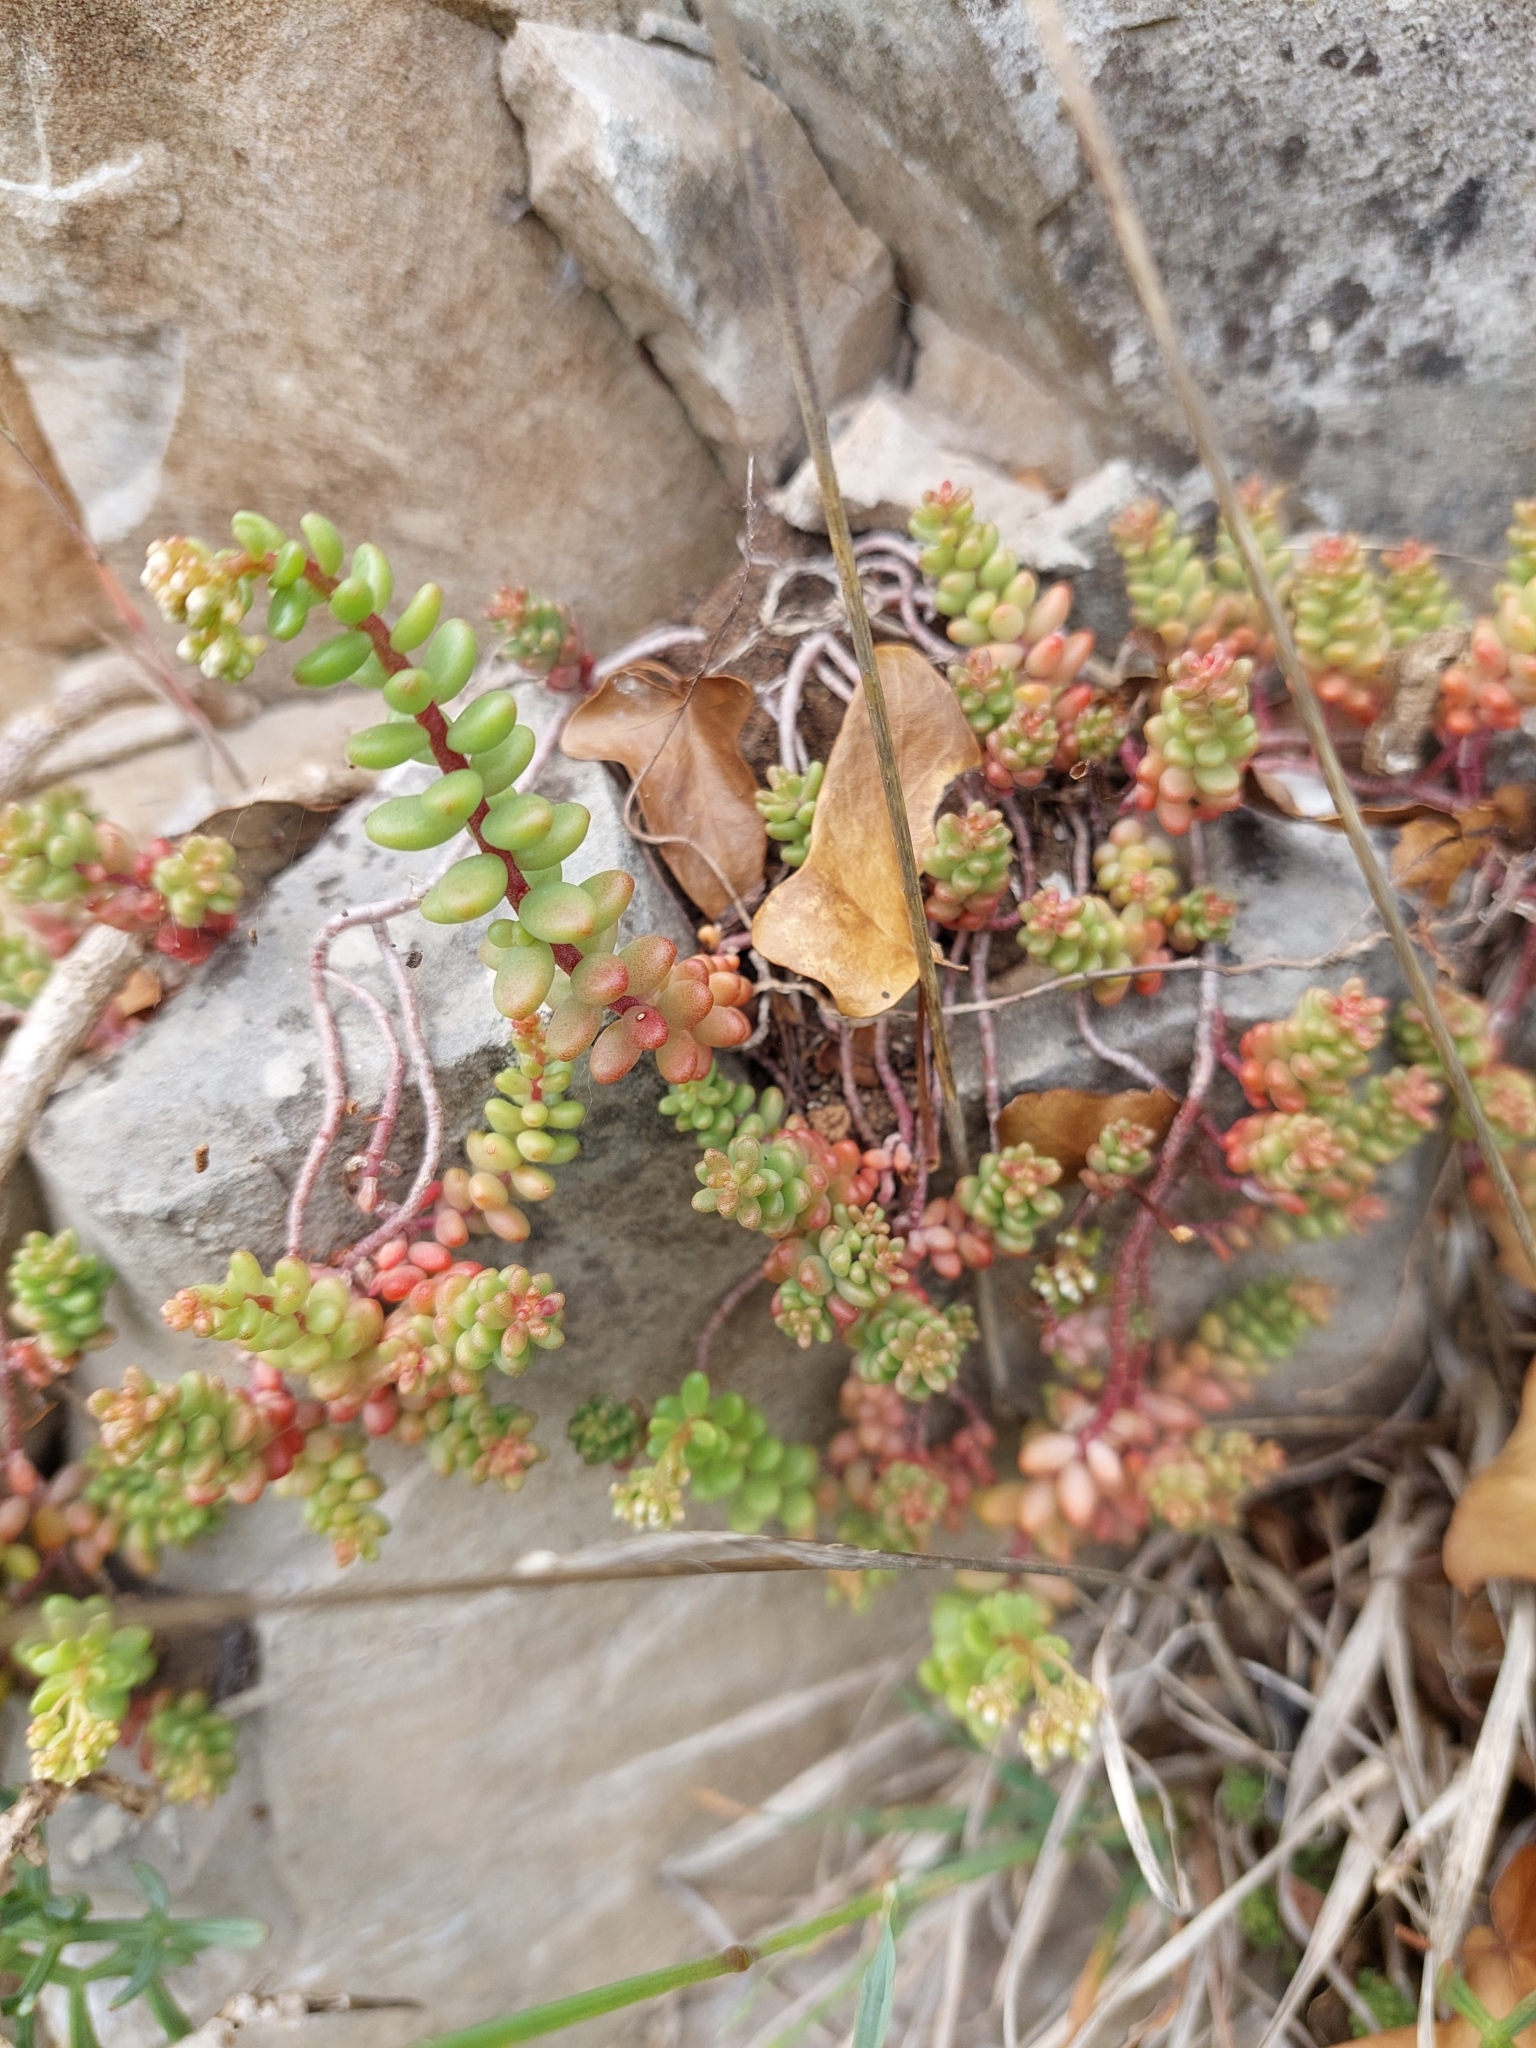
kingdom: Plantae
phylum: Tracheophyta
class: Magnoliopsida
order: Saxifragales
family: Crassulaceae
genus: Sedum
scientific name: Sedum album
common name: White stonecrop
